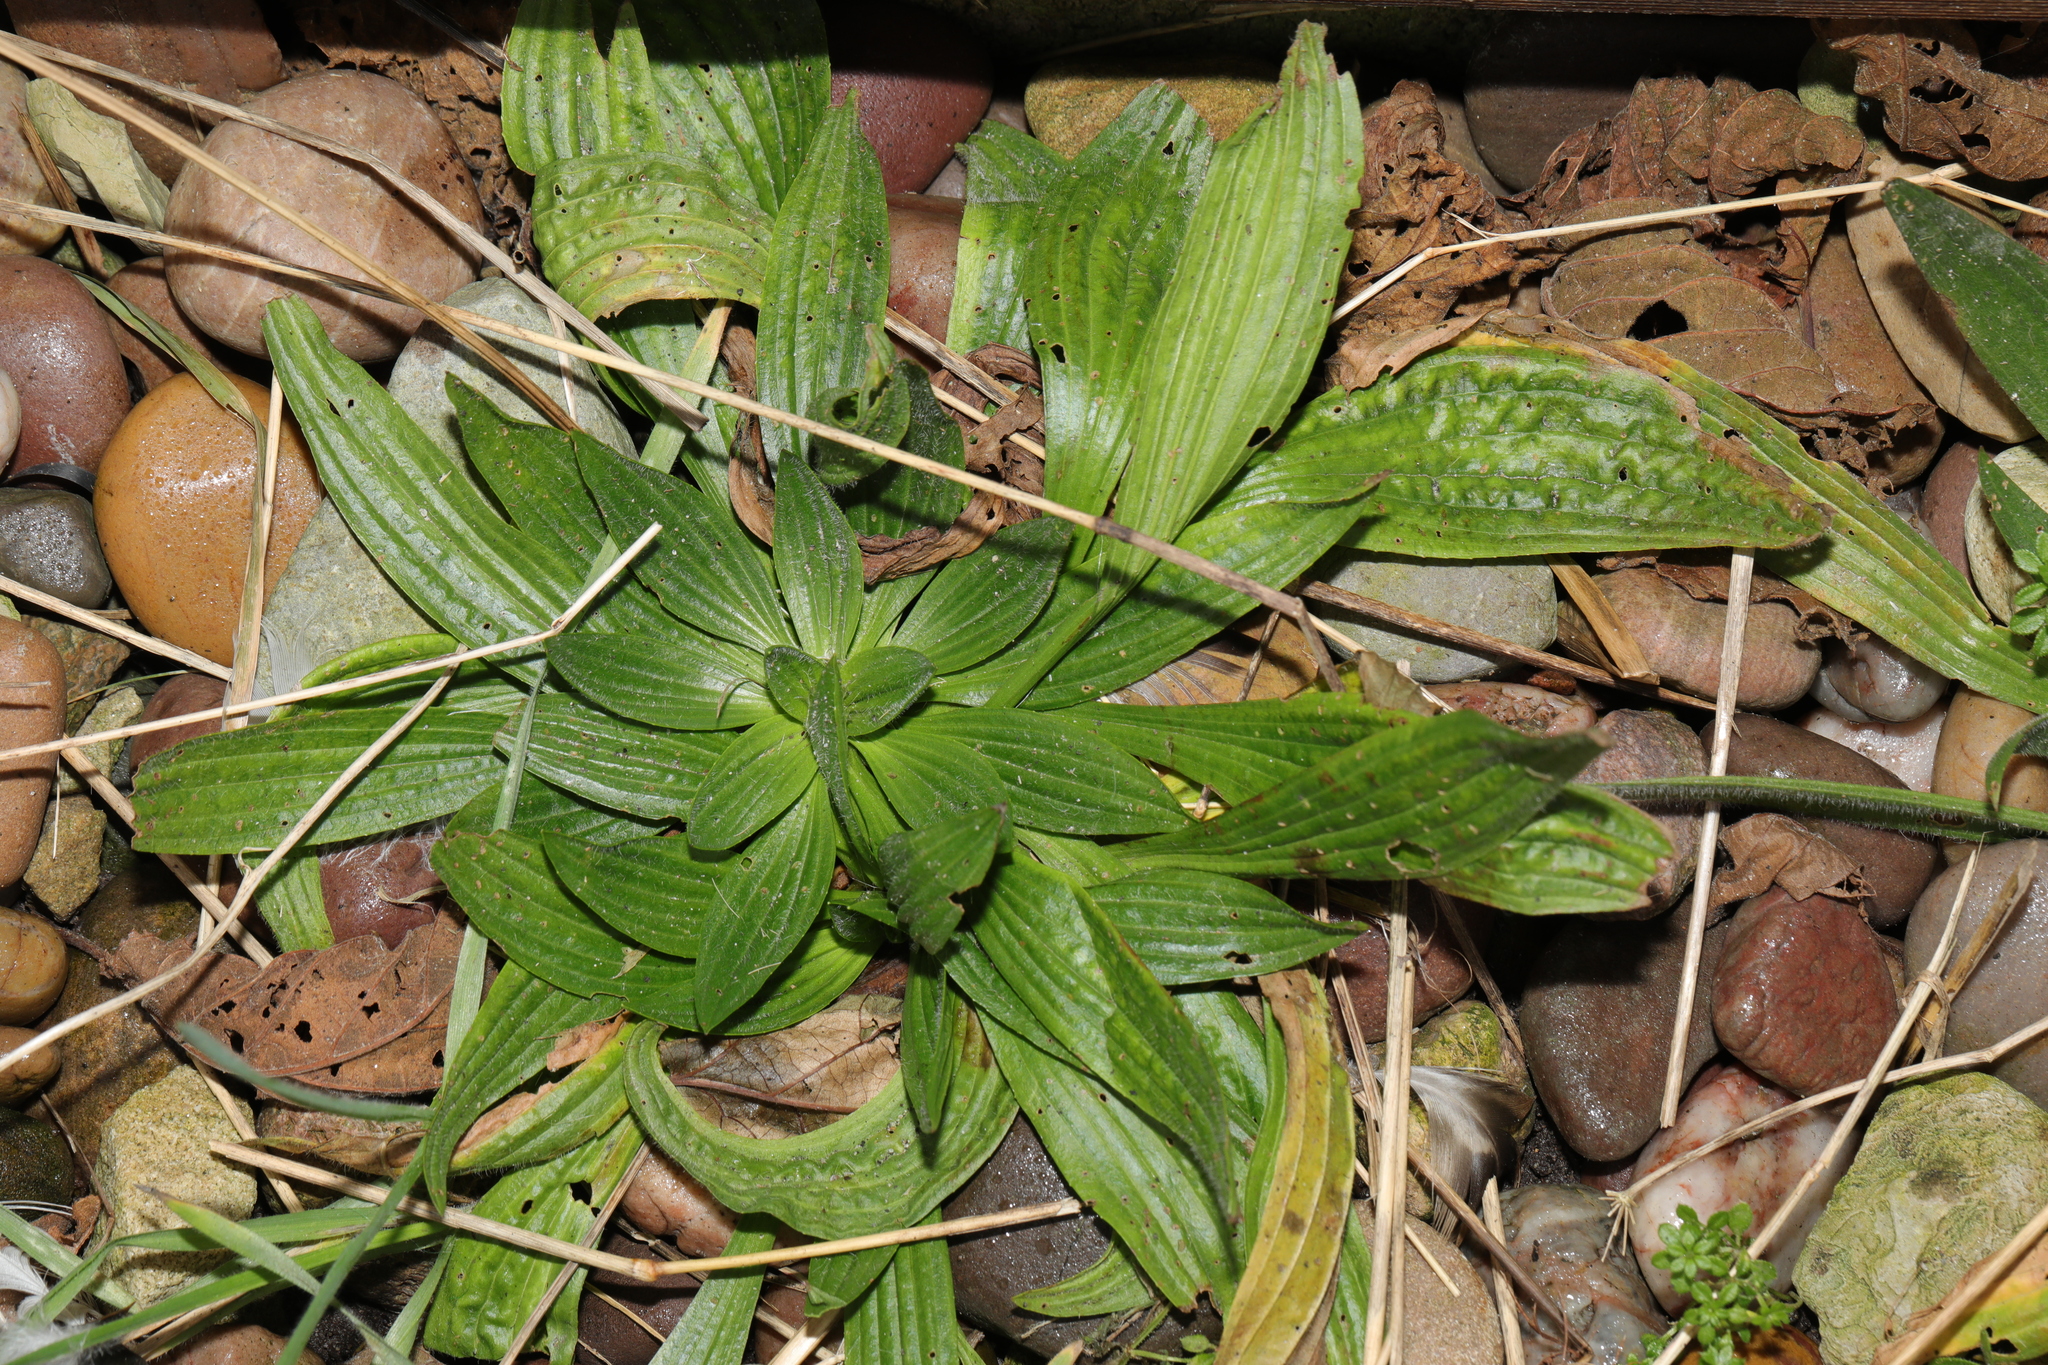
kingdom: Plantae
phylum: Tracheophyta
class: Magnoliopsida
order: Lamiales
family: Plantaginaceae
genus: Plantago
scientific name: Plantago lanceolata
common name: Ribwort plantain
